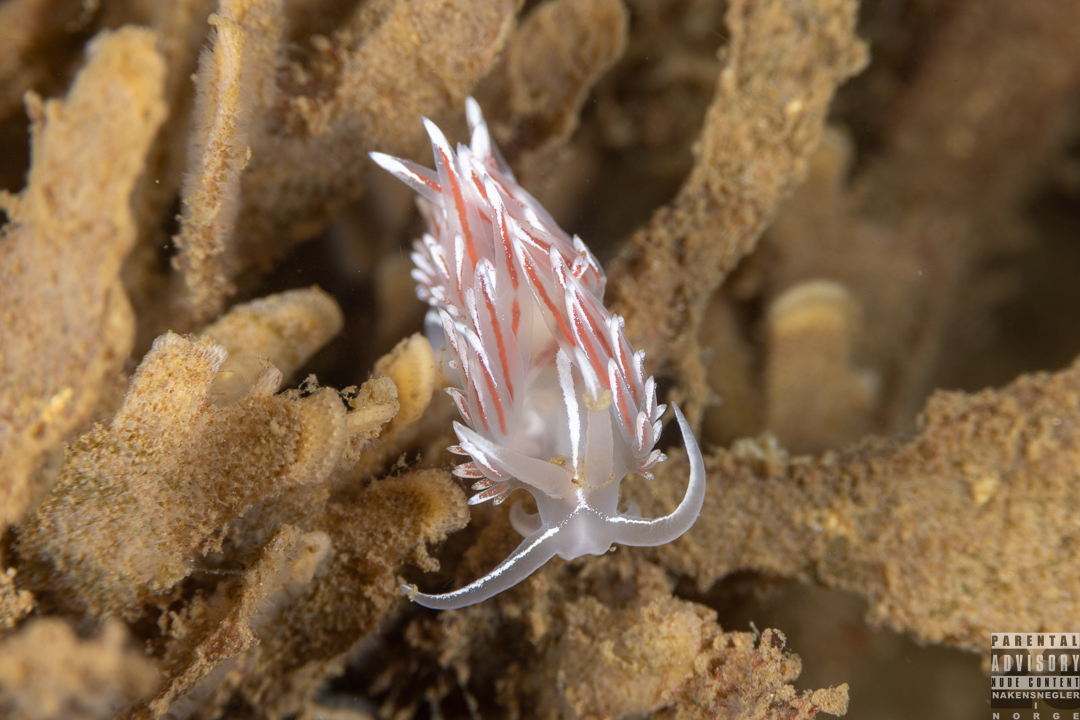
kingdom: Animalia
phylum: Mollusca
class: Gastropoda
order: Nudibranchia
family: Coryphellidae
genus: Coryphella
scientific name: Coryphella lineata
